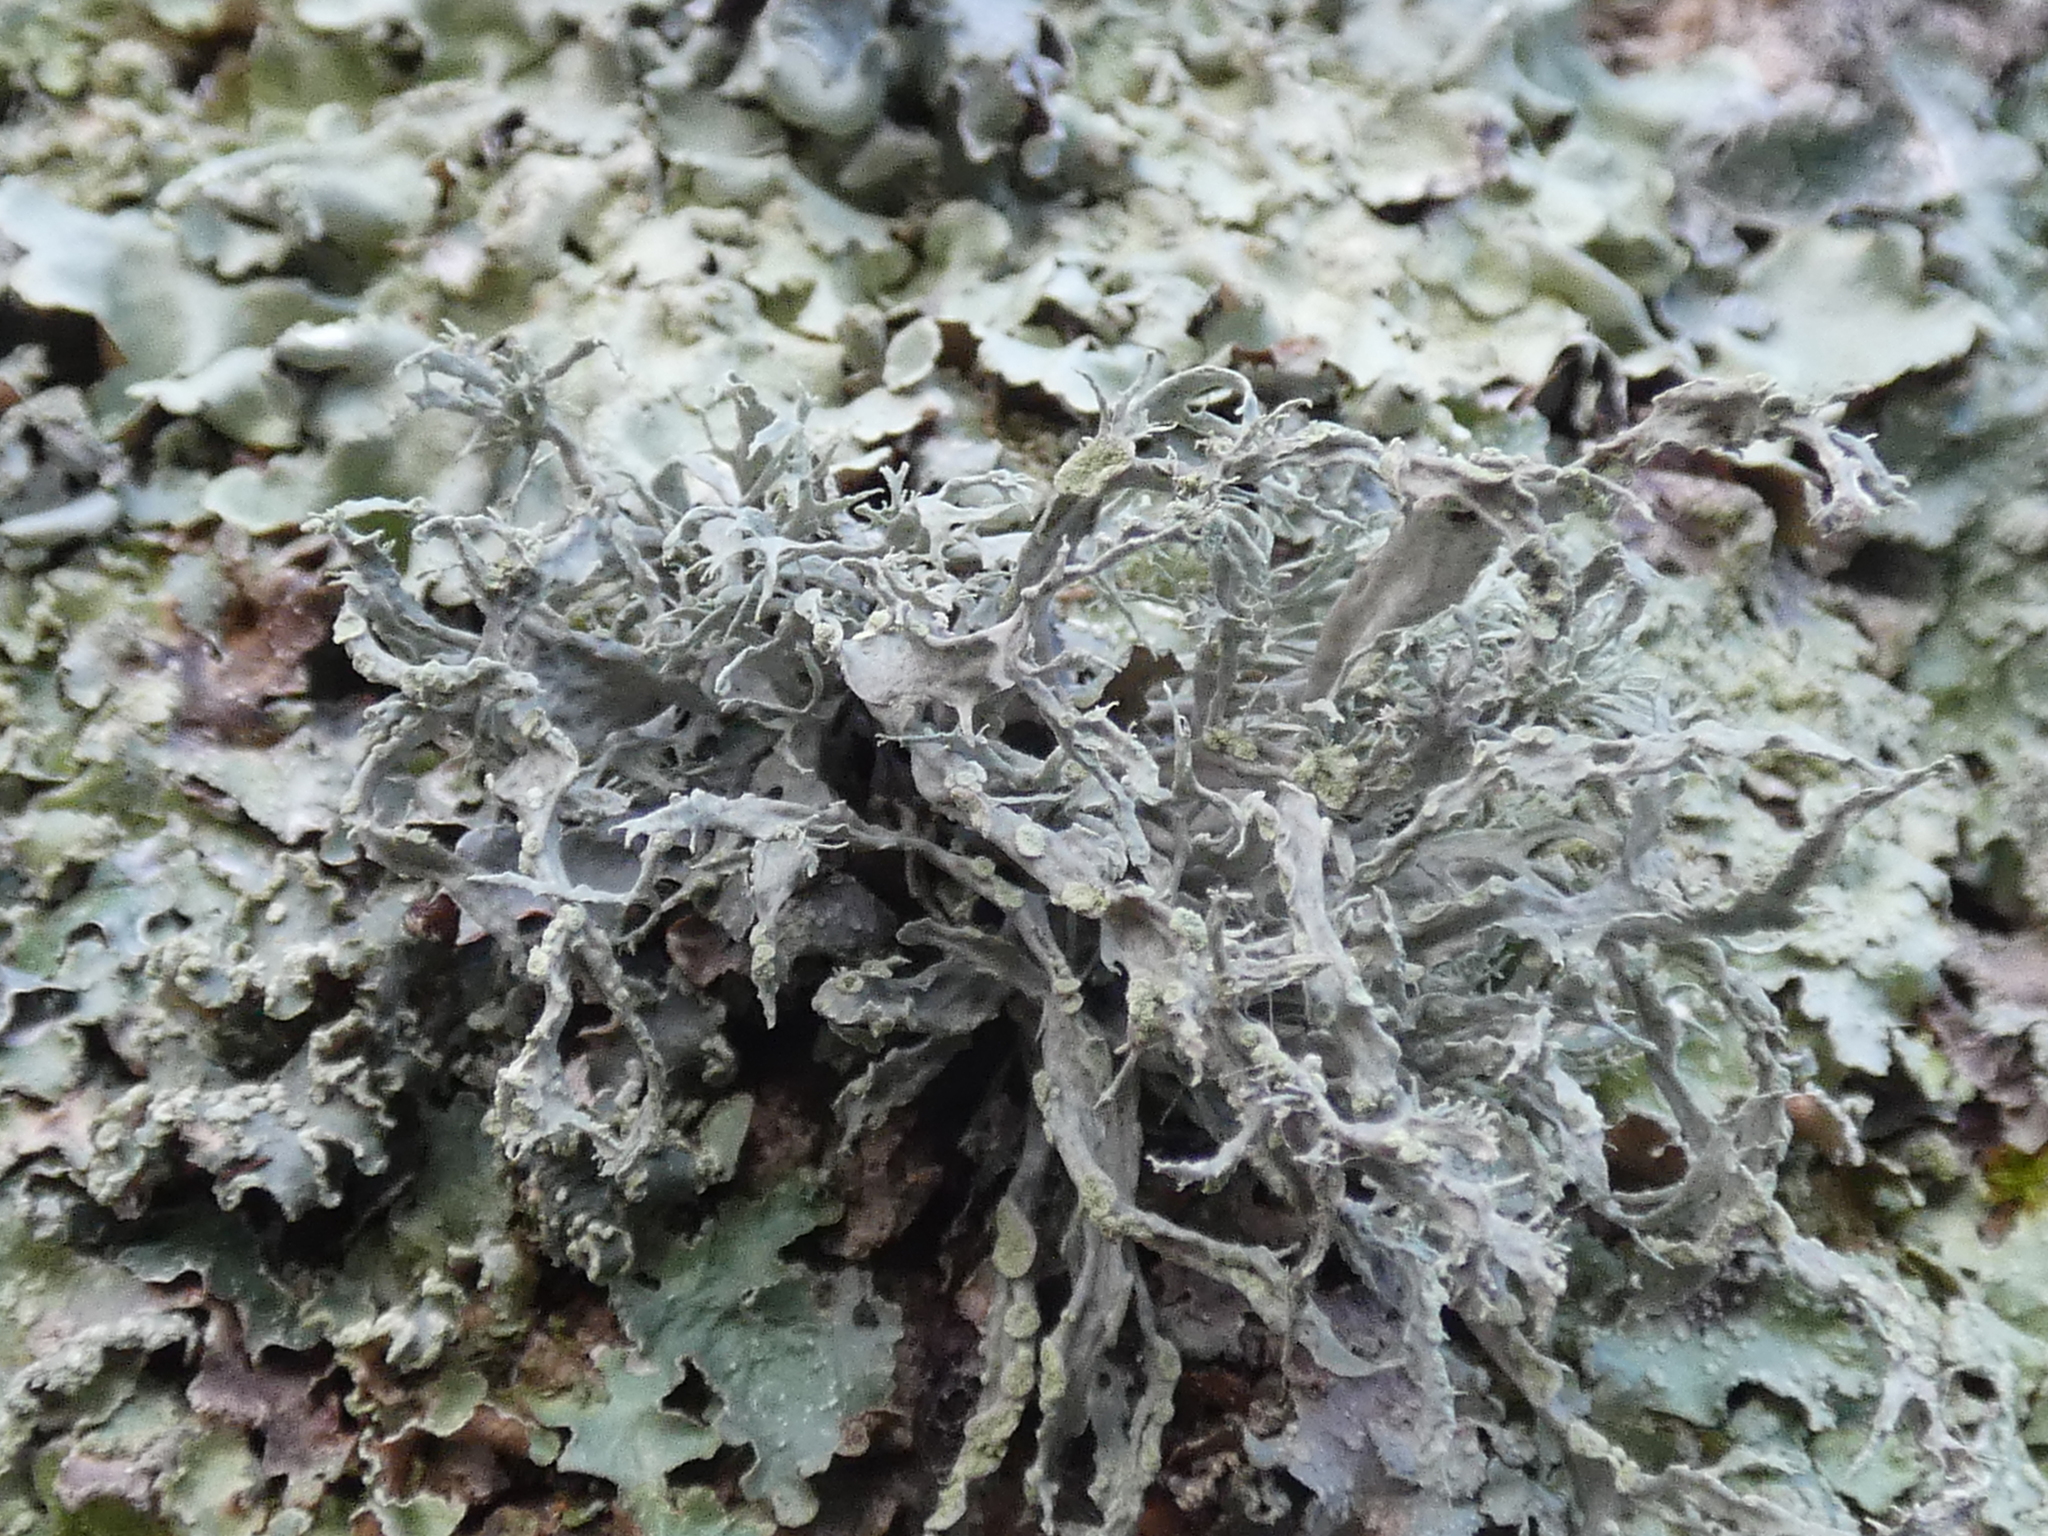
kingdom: Fungi
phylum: Ascomycota
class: Lecanoromycetes
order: Lecanorales
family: Ramalinaceae
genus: Ramalina
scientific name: Ramalina farinacea
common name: Farinose cartilage lichen
